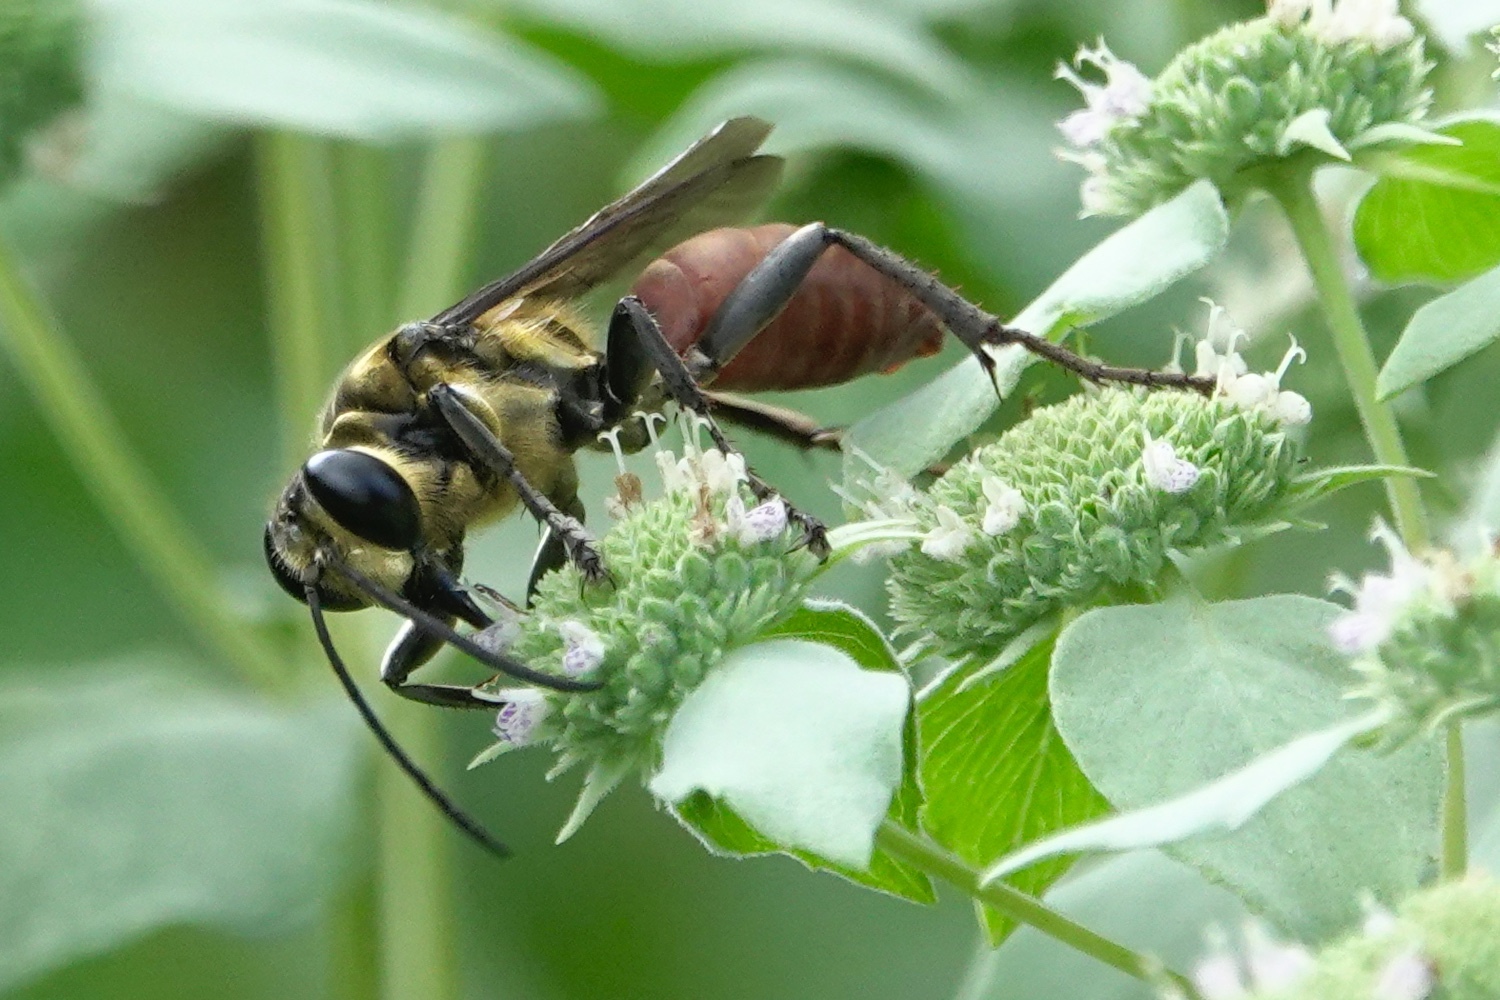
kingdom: Animalia
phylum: Arthropoda
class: Insecta
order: Hymenoptera
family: Sphecidae
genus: Sphex
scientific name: Sphex habenus
